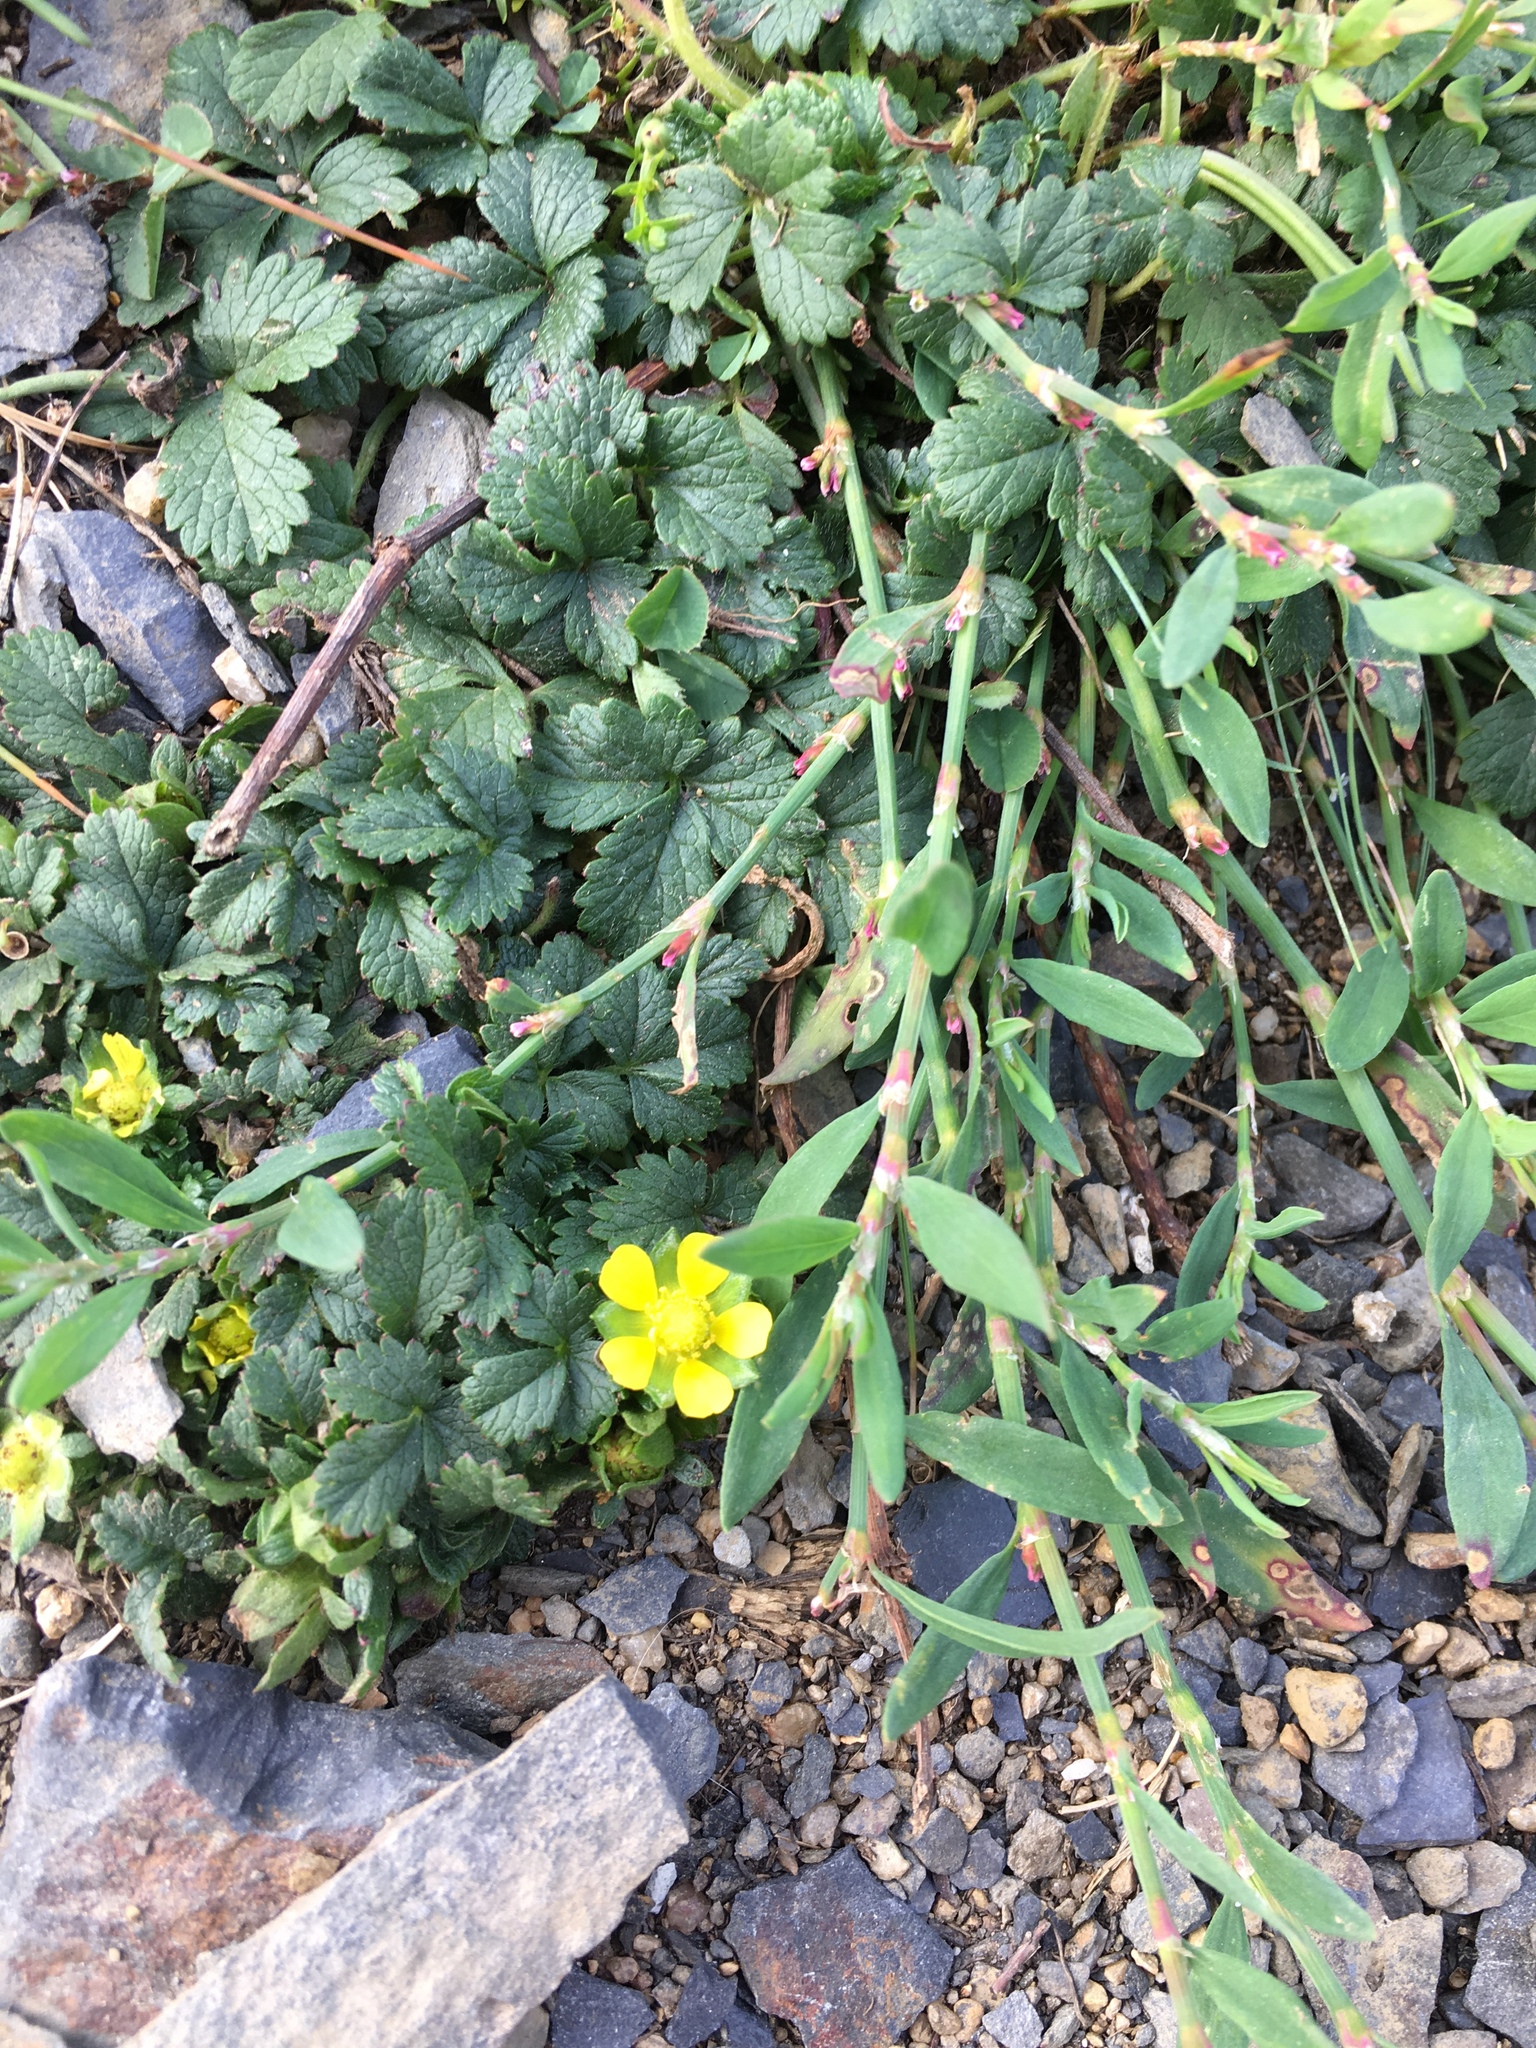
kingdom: Plantae
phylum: Tracheophyta
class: Magnoliopsida
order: Rosales
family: Rosaceae
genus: Potentilla
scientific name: Potentilla norvegica
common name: Ternate-leaved cinquefoil
